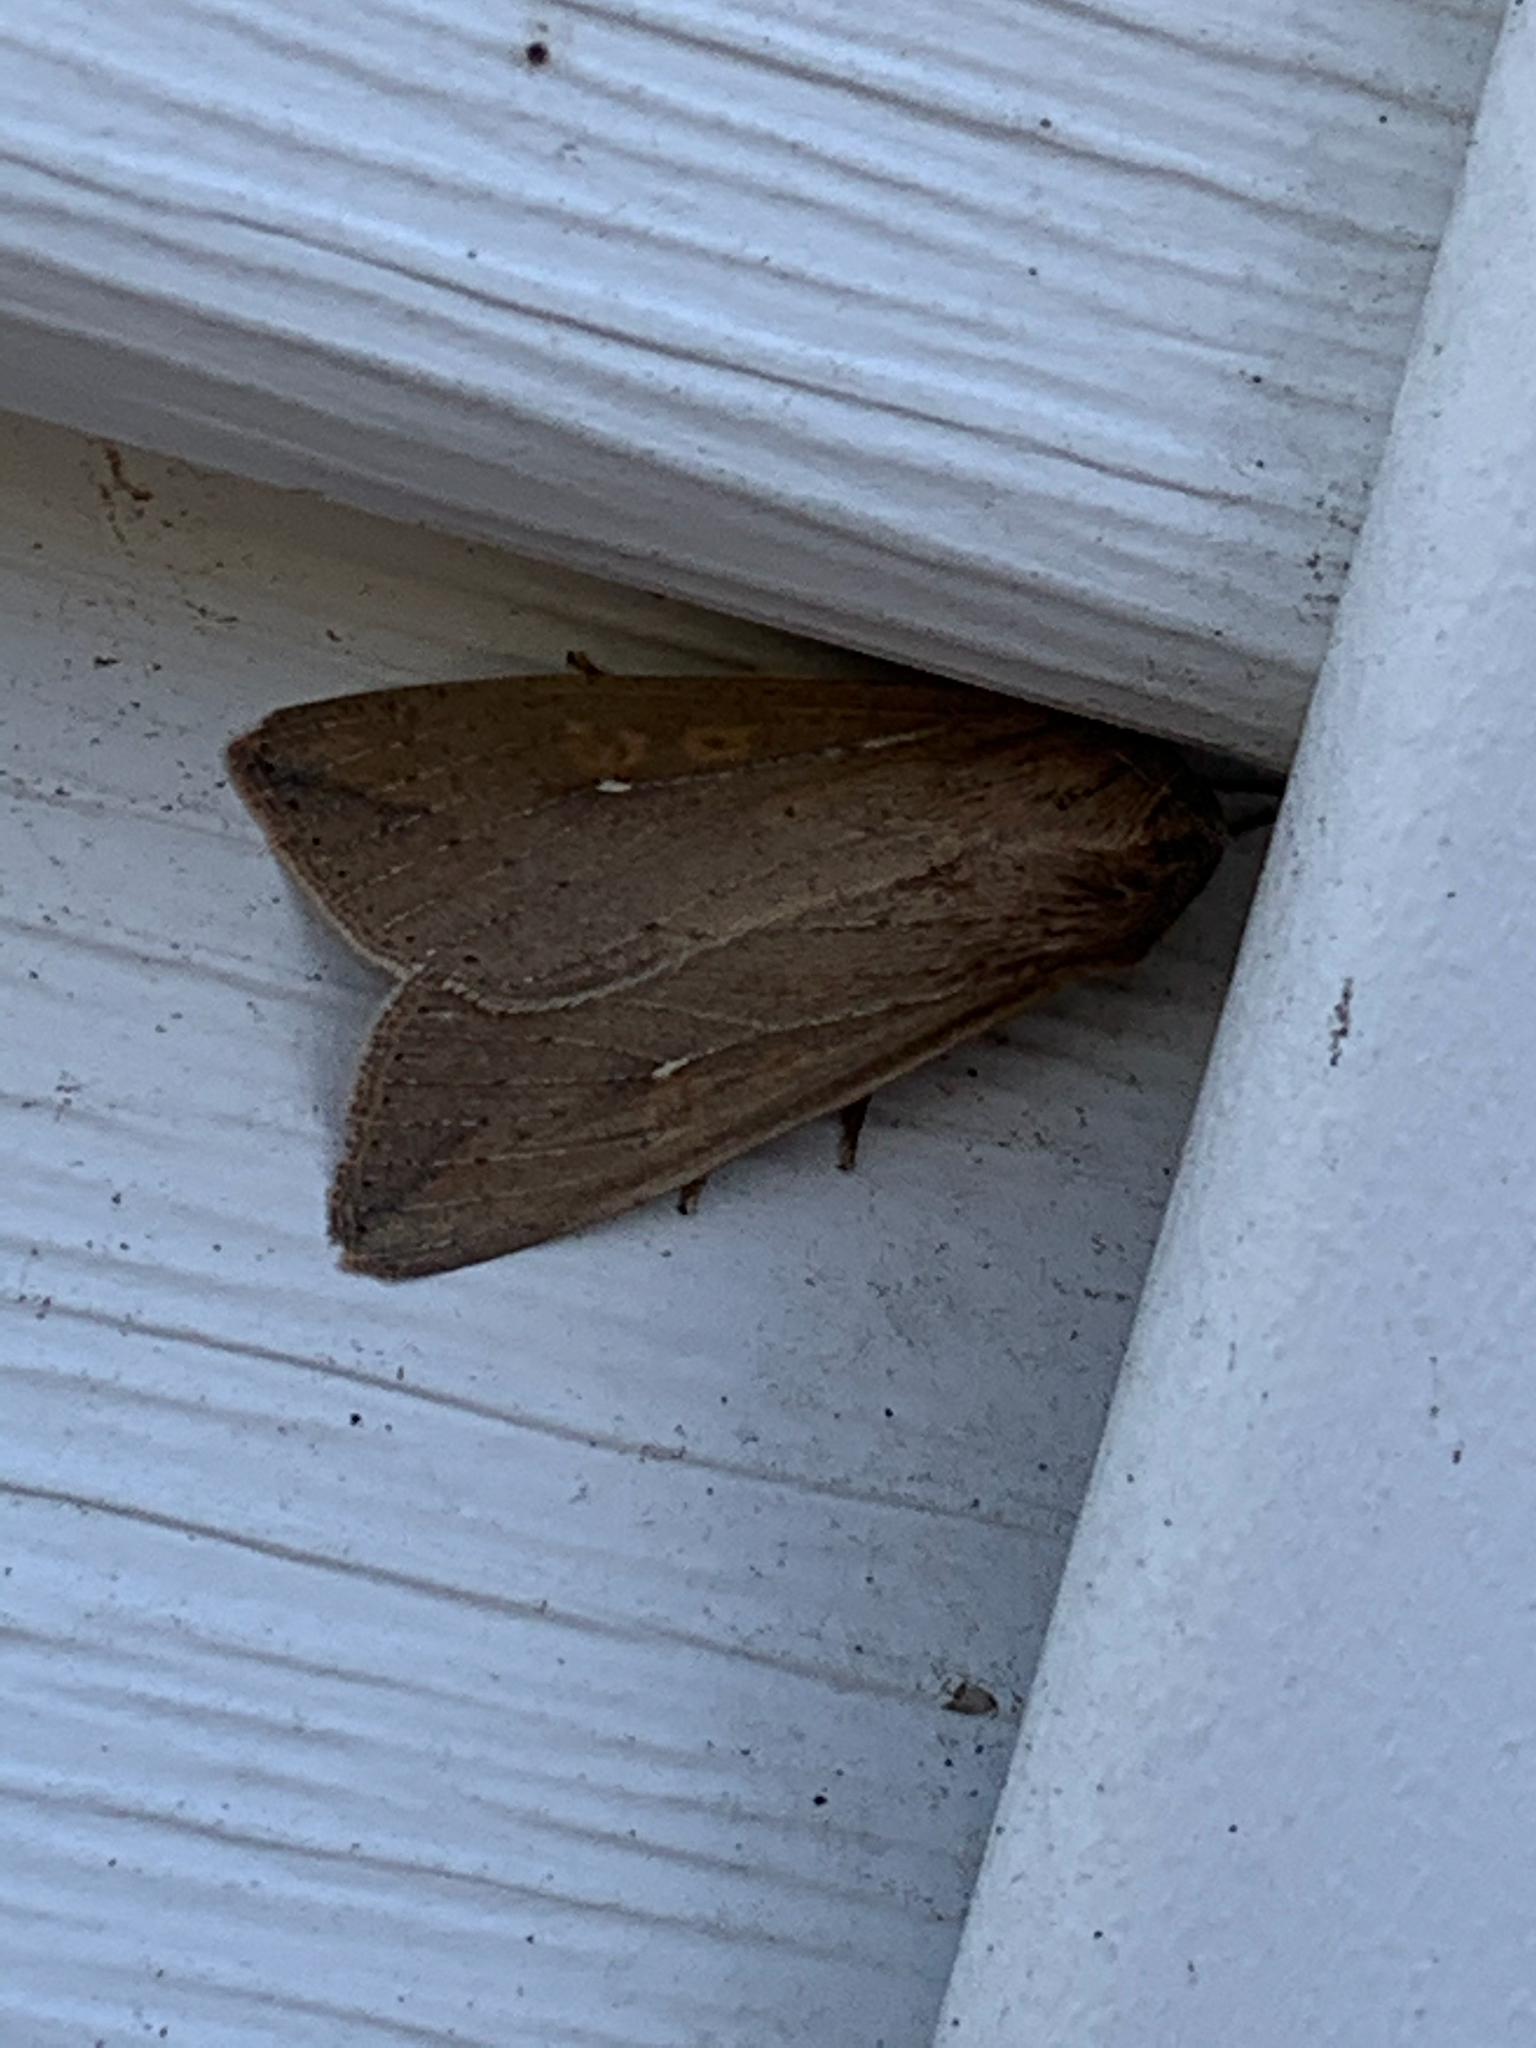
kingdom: Animalia
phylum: Arthropoda
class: Insecta
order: Lepidoptera
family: Noctuidae
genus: Mythimna
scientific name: Mythimna unipuncta
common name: White-speck
